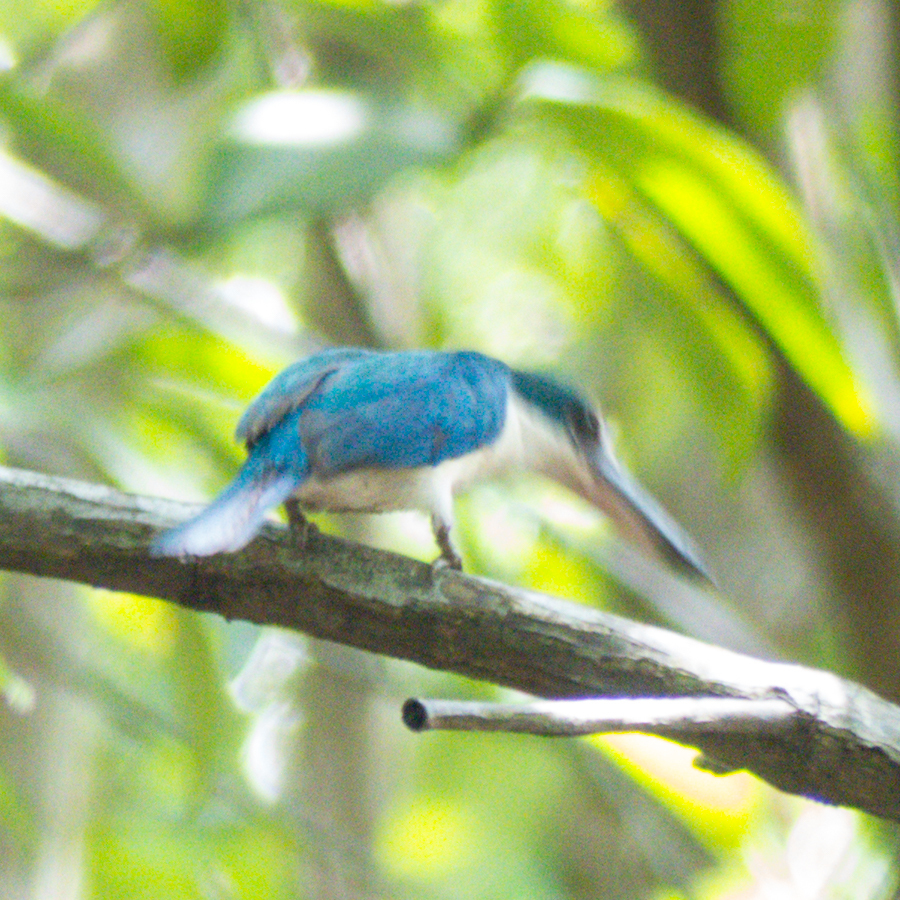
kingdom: Animalia
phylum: Chordata
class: Aves
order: Coraciiformes
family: Alcedinidae
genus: Todiramphus
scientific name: Todiramphus chloris
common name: Collared kingfisher
